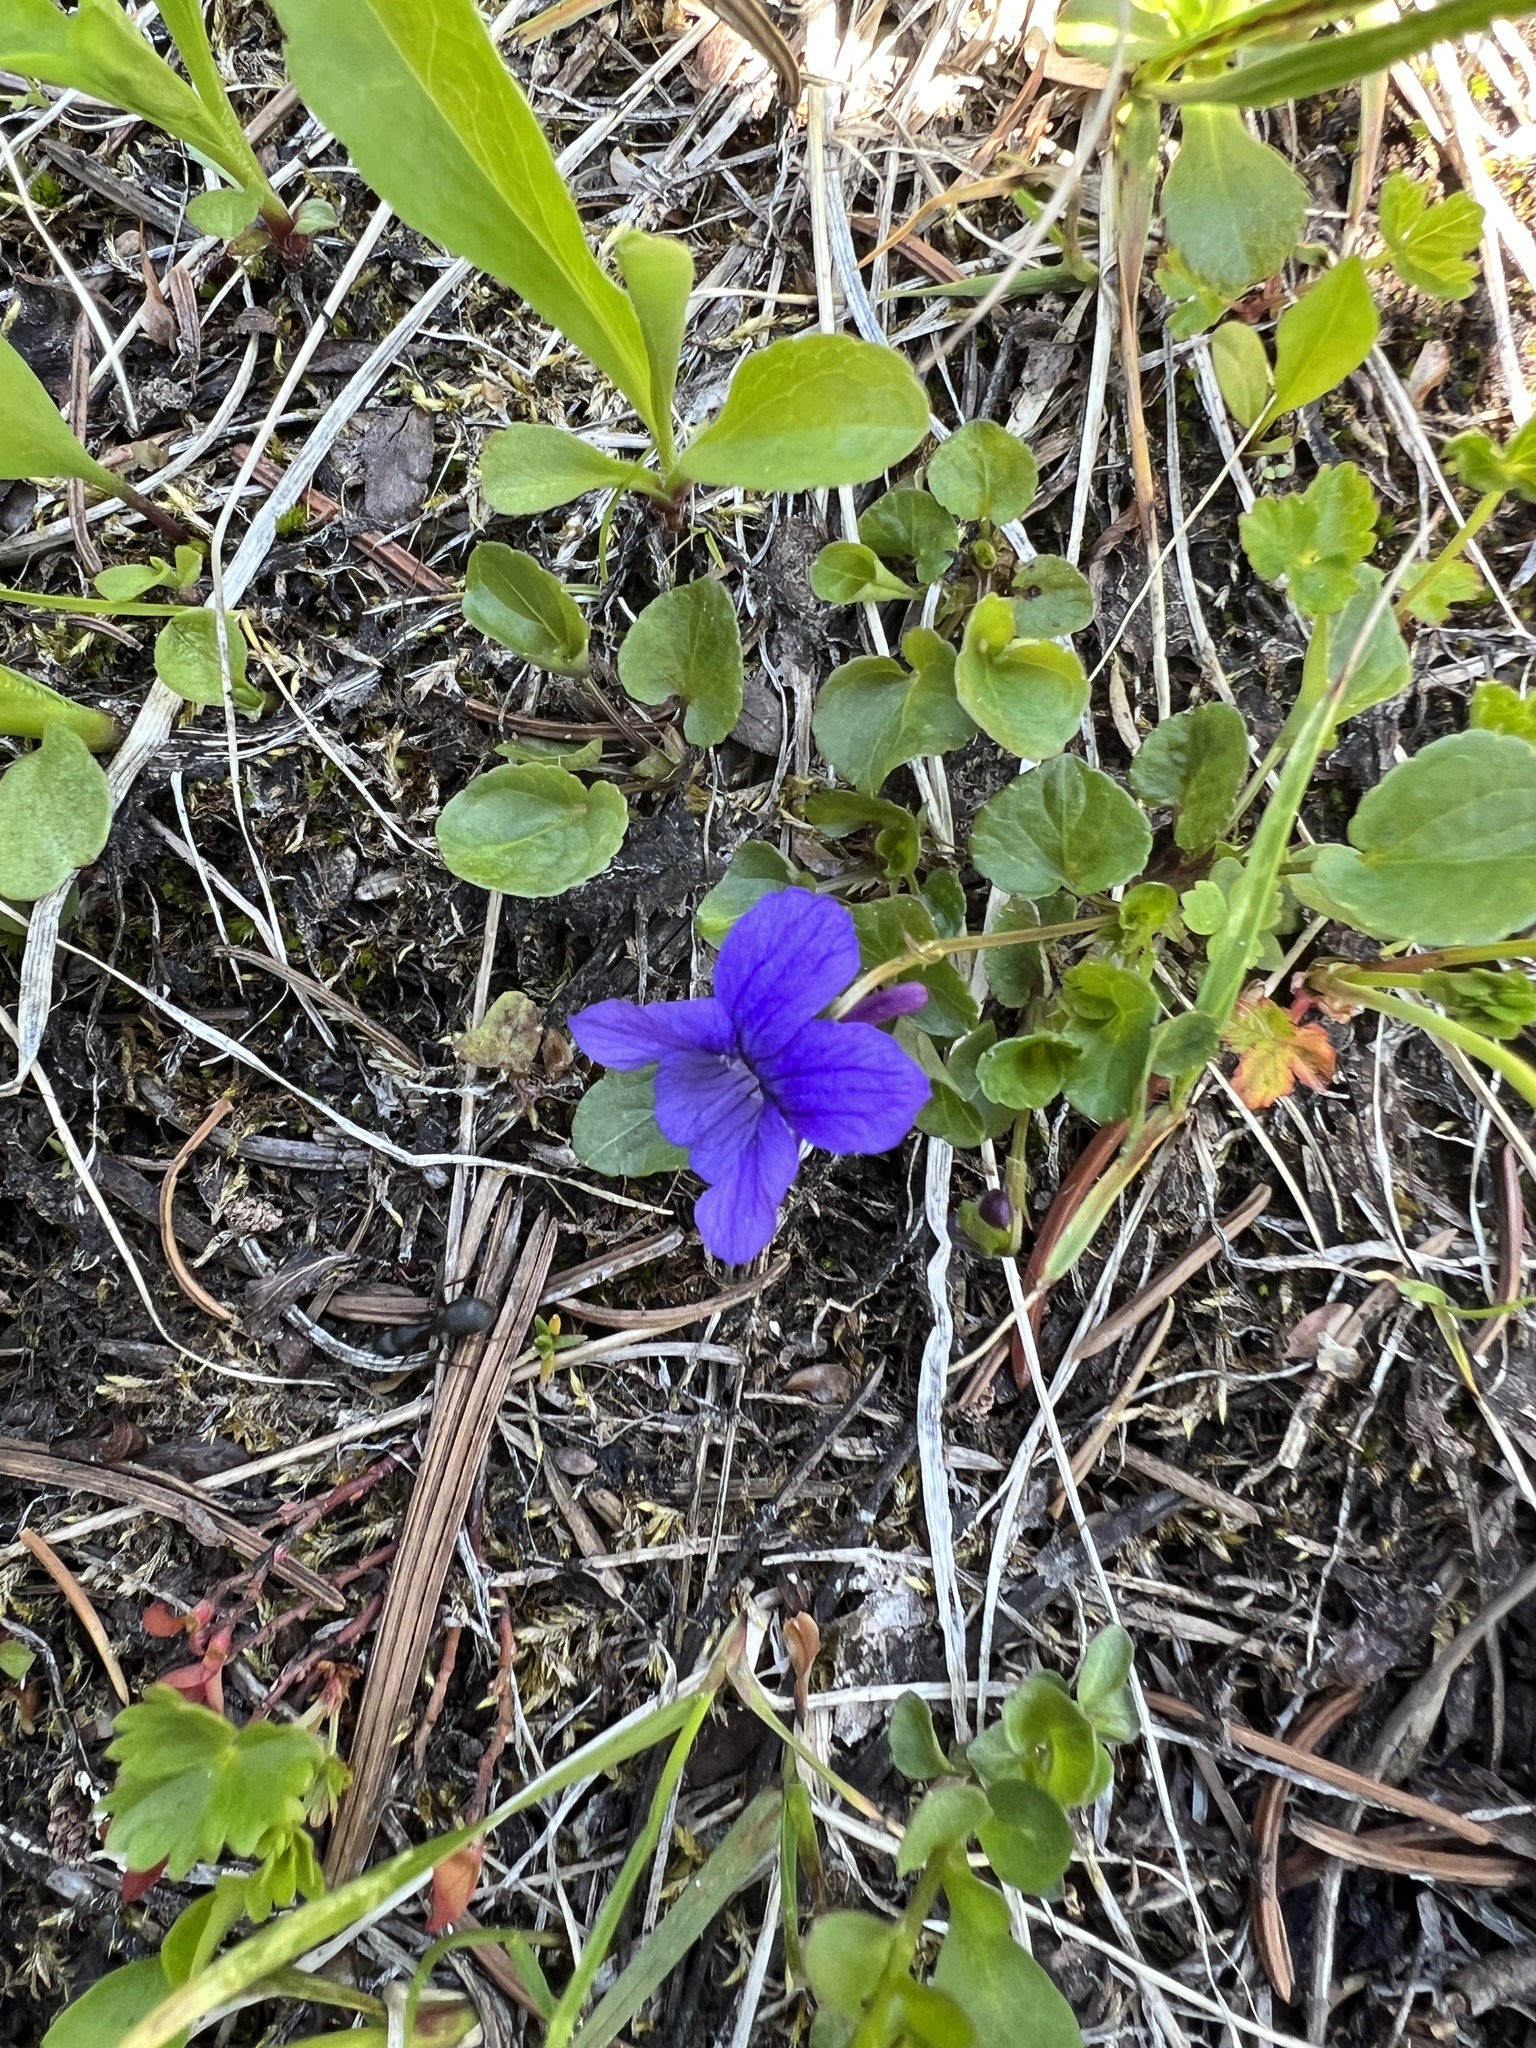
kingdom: Plantae
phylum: Tracheophyta
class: Magnoliopsida
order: Malpighiales
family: Violaceae
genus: Viola
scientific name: Viola adunca
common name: Sand violet
